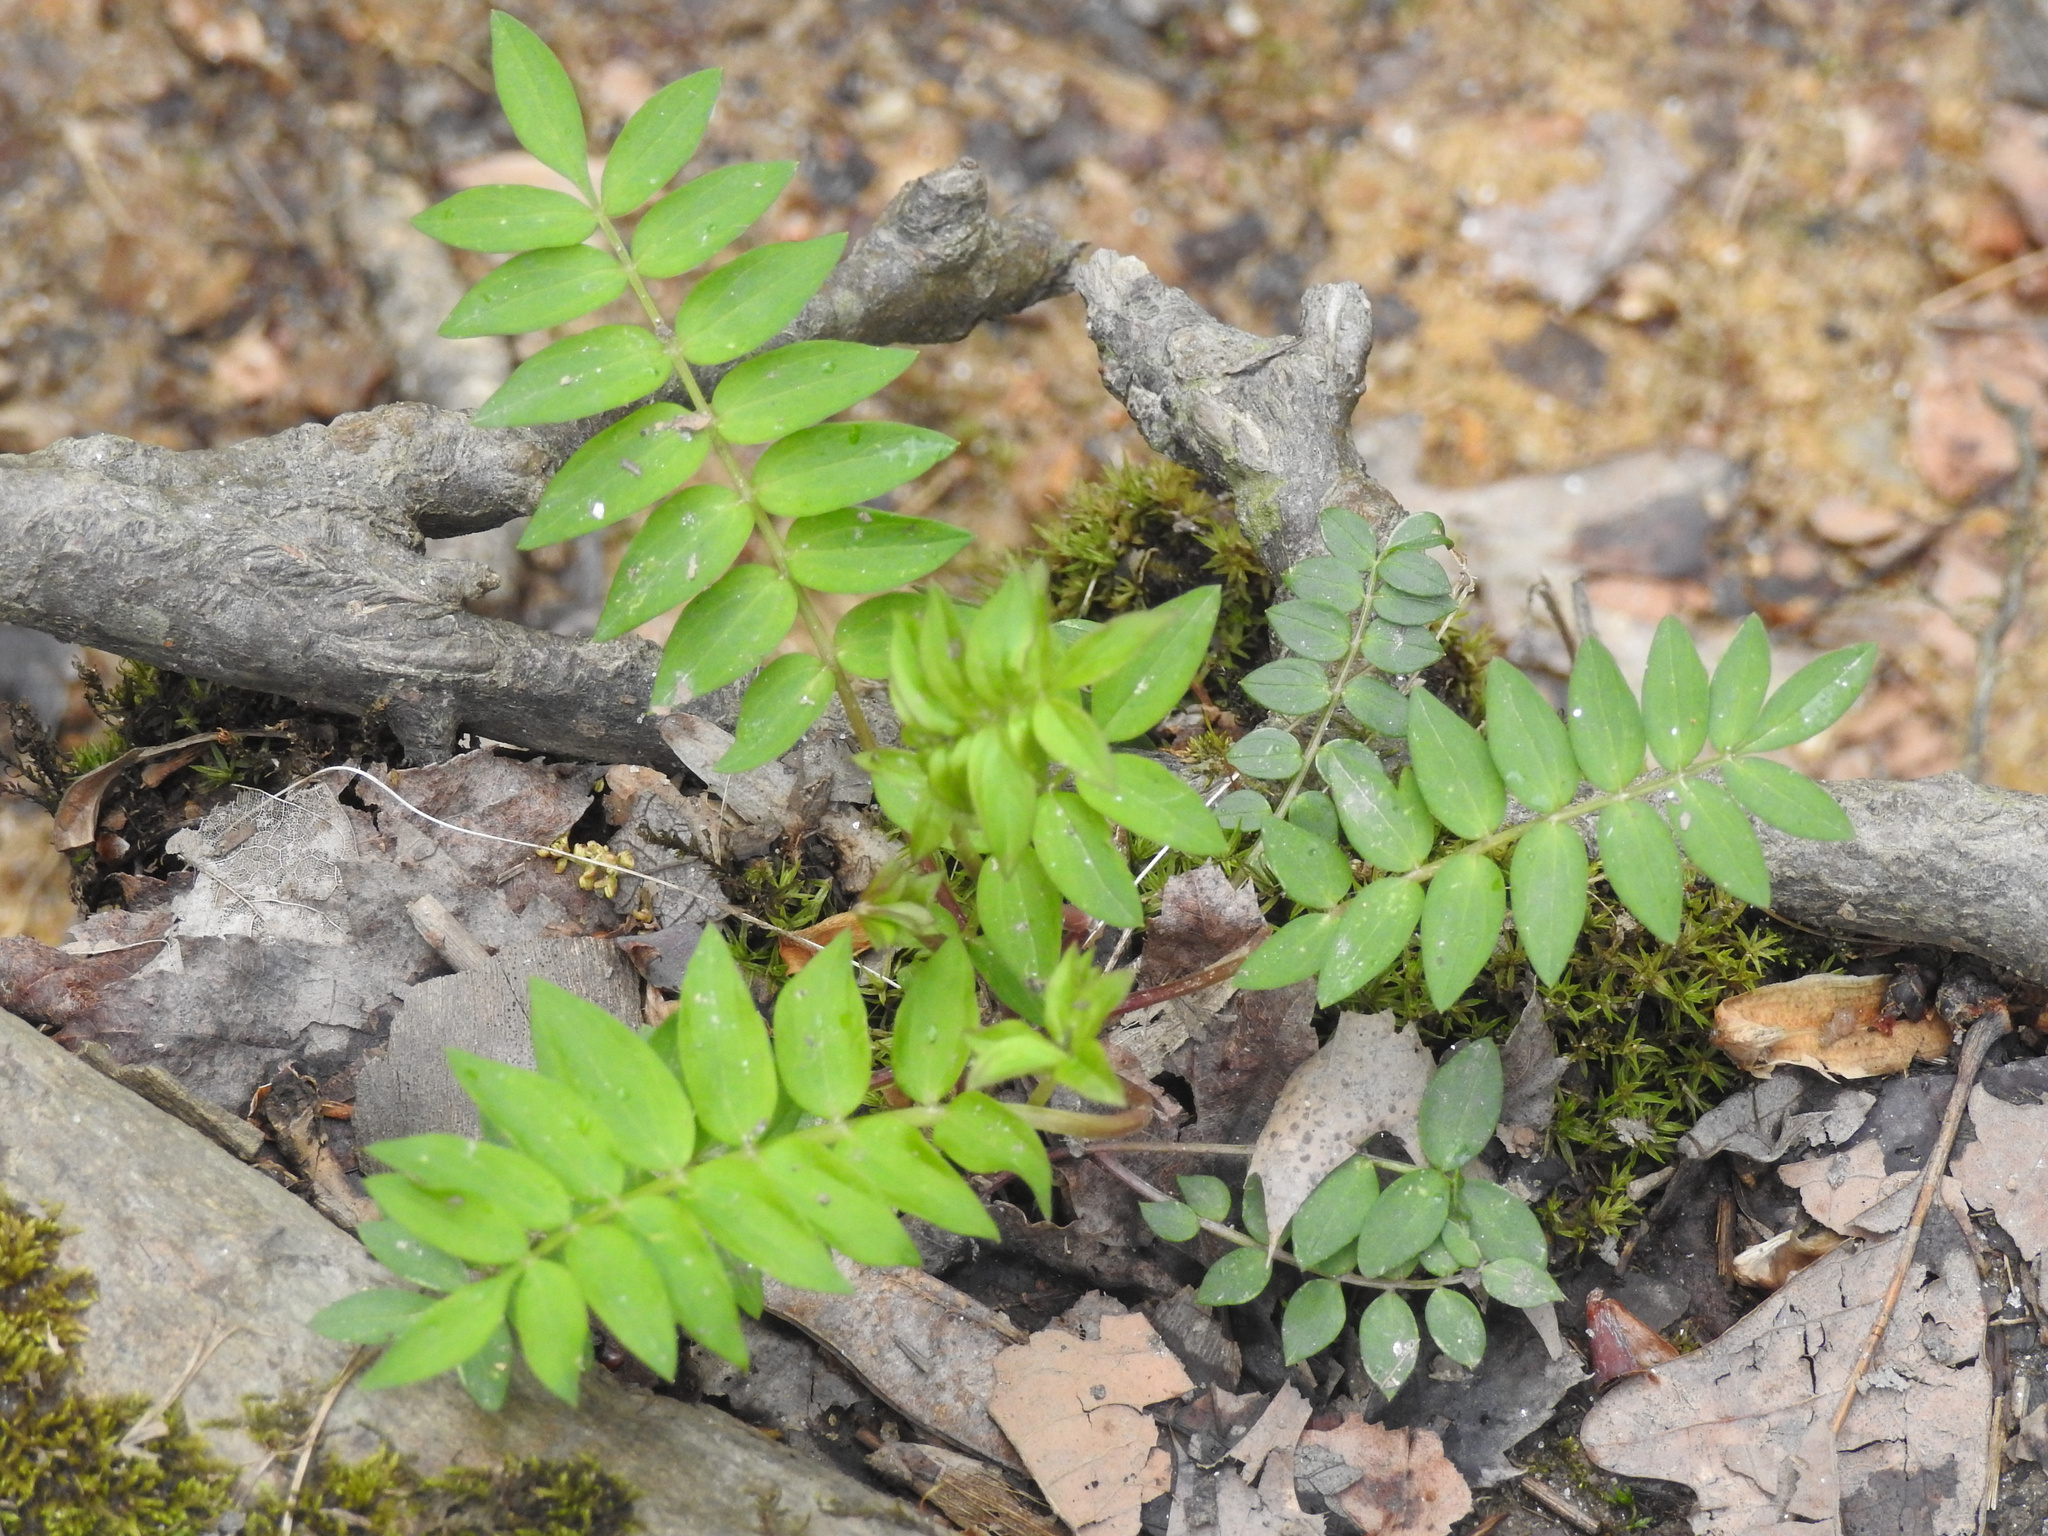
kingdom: Plantae
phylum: Tracheophyta
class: Magnoliopsida
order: Ericales
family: Polemoniaceae
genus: Polemonium
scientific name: Polemonium reptans
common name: Creeping jacob's-ladder
